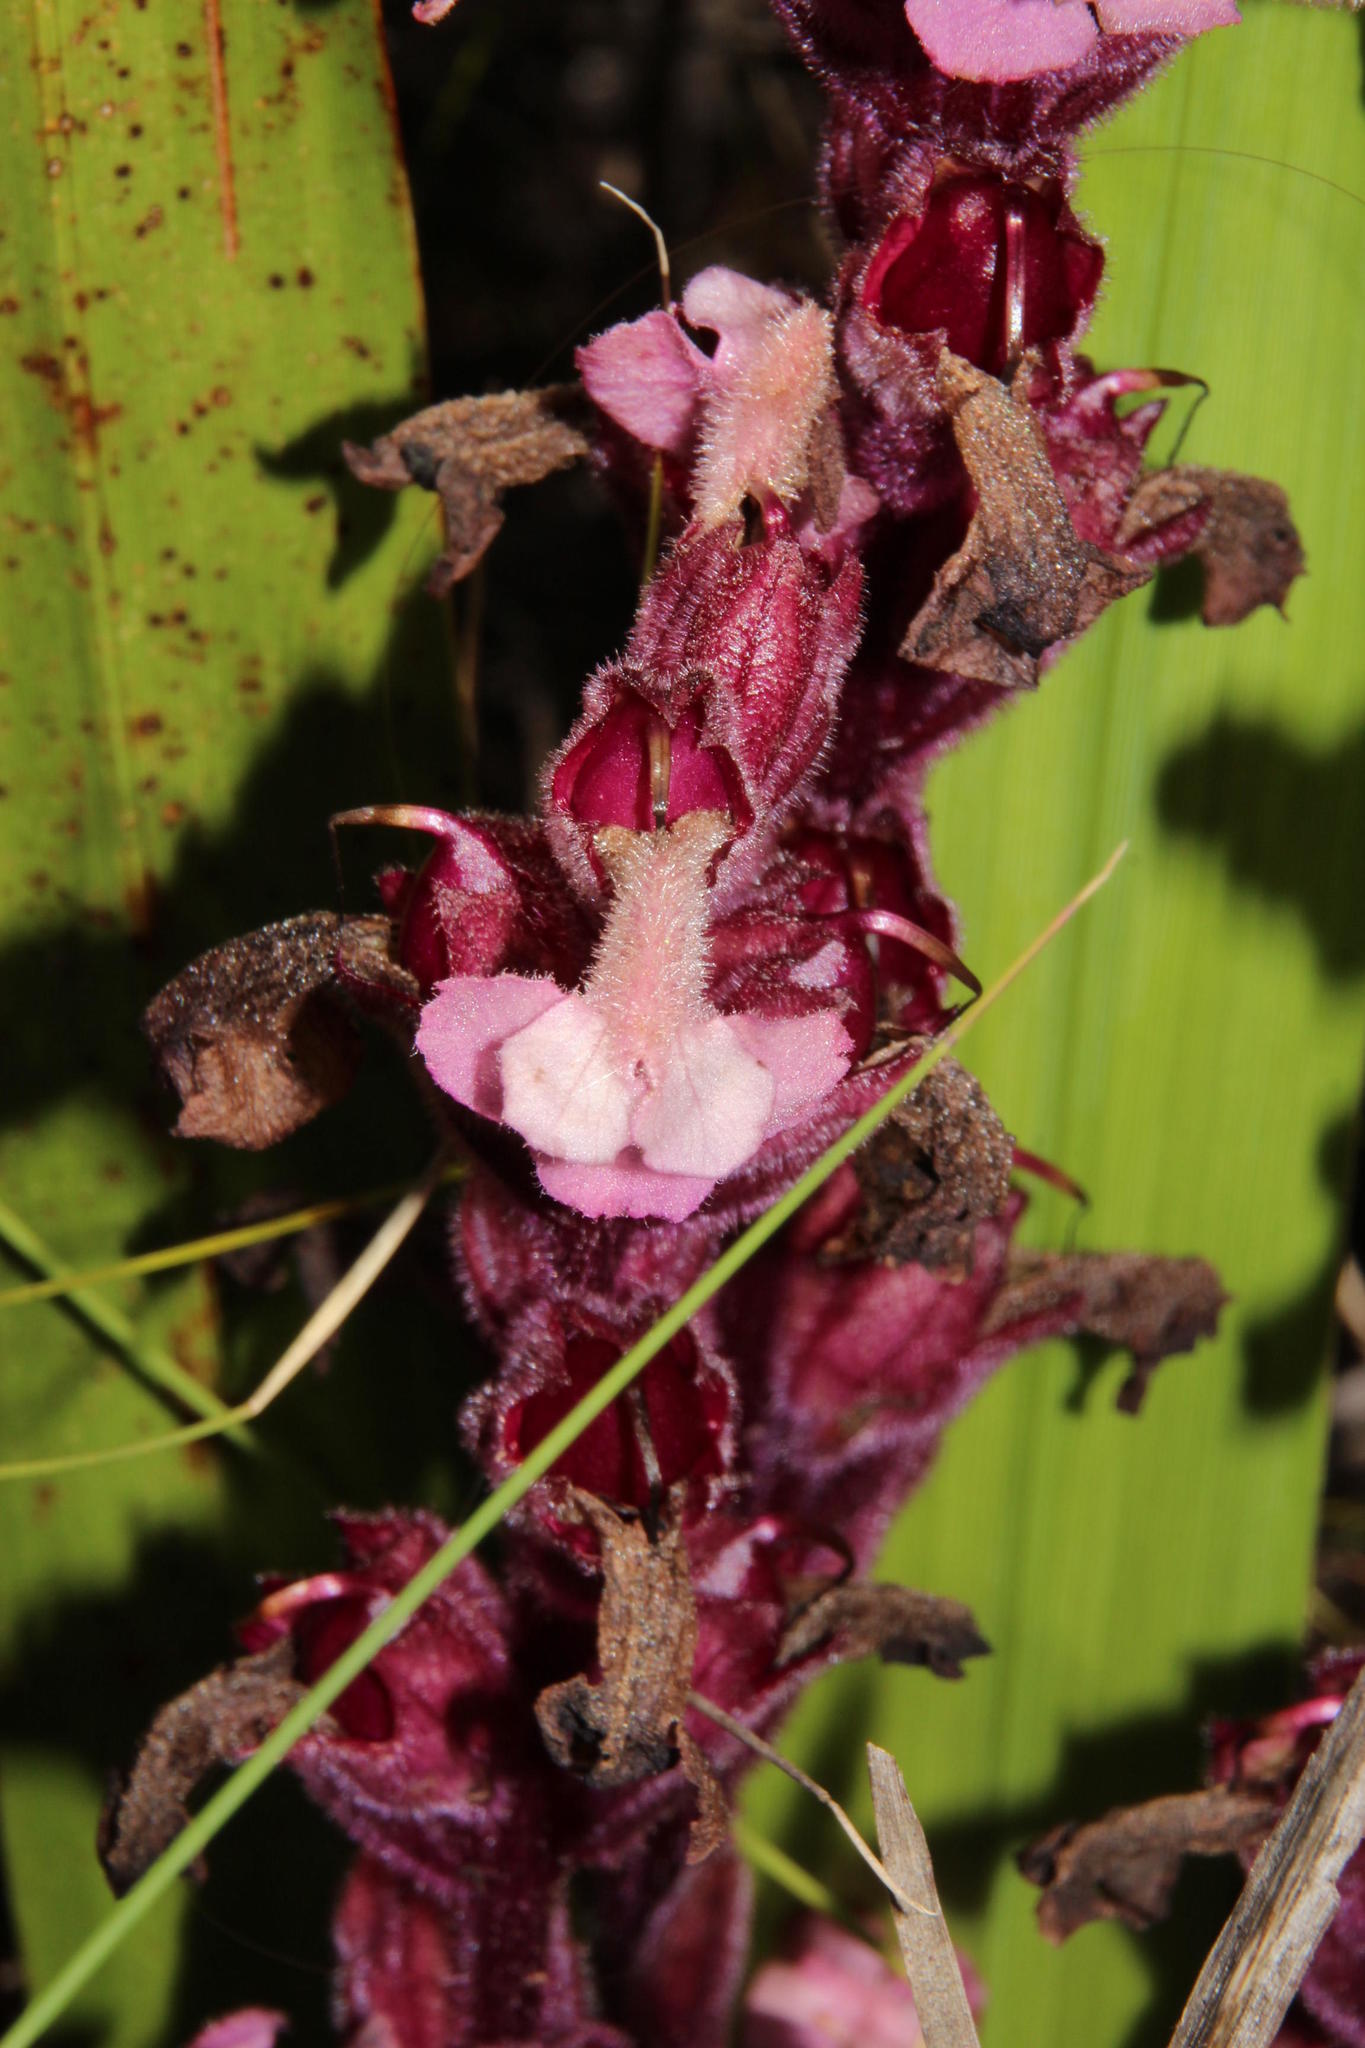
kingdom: Plantae
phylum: Tracheophyta
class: Magnoliopsida
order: Lamiales
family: Orobanchaceae
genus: Harveya
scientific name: Harveya pauciflora
